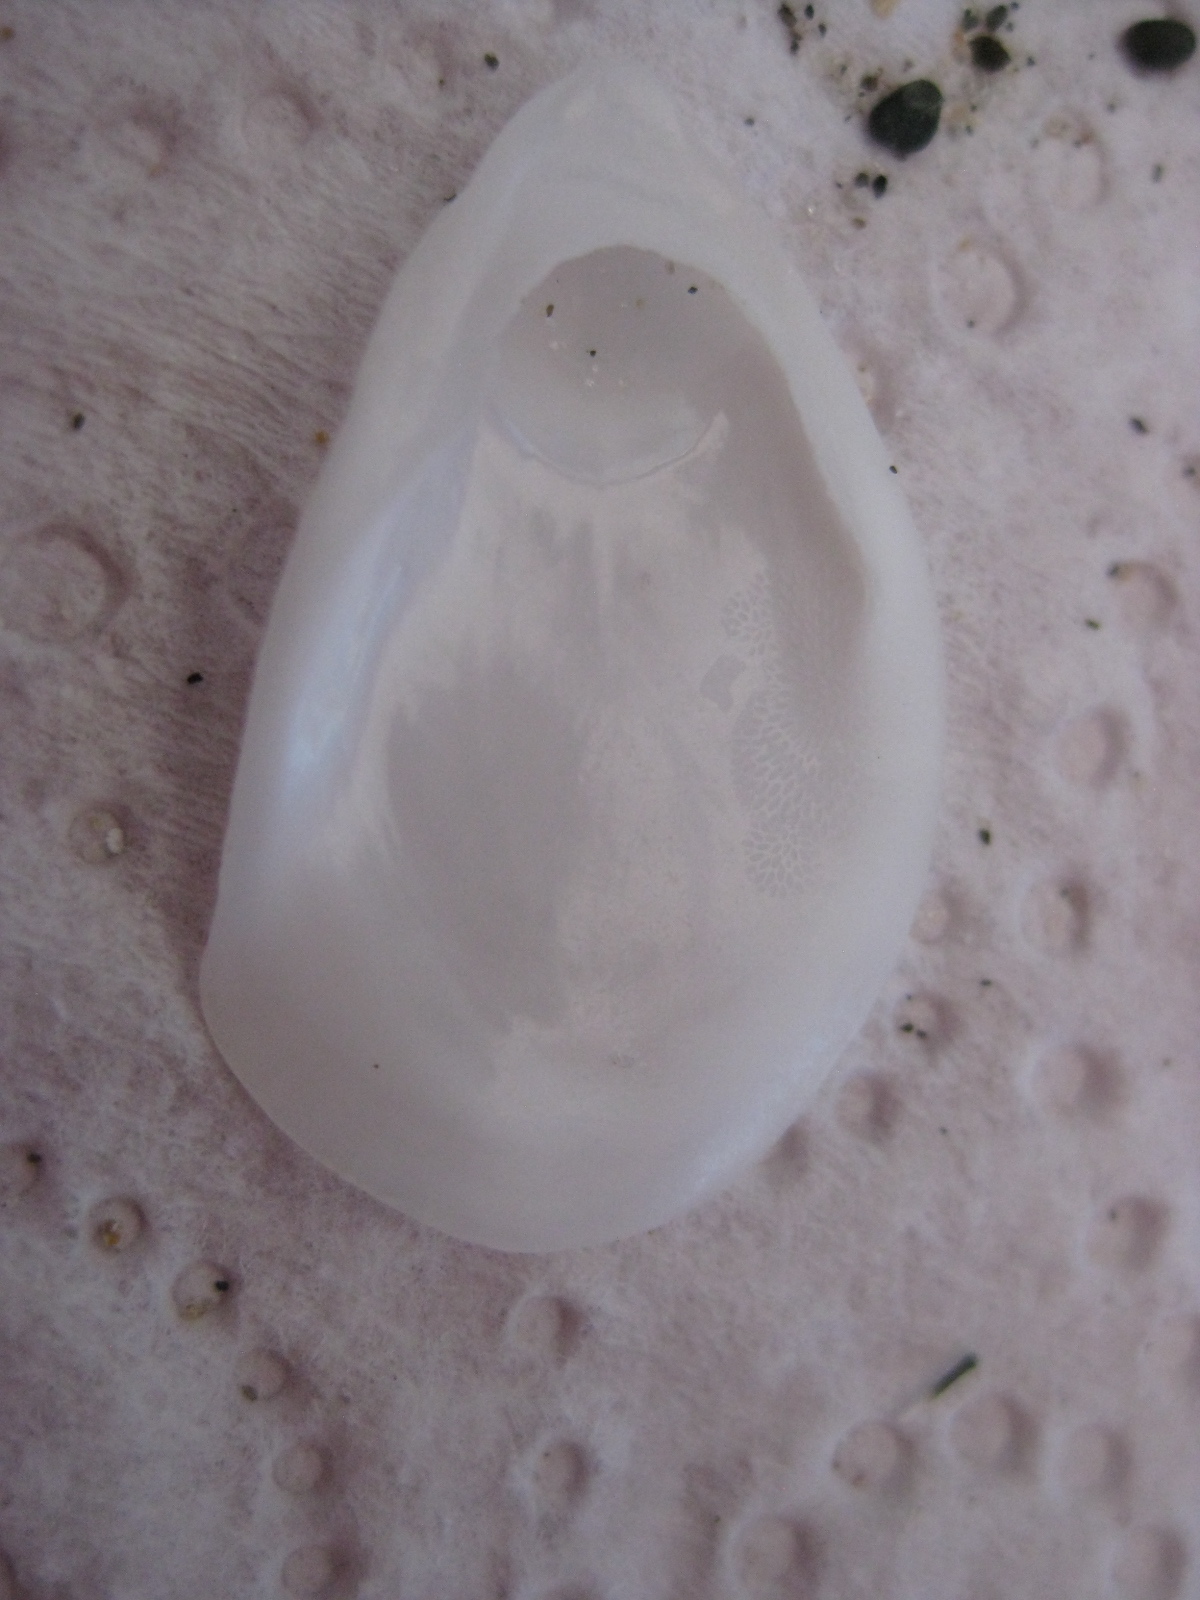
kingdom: Animalia
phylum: Mollusca
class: Gastropoda
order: Littorinimorpha
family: Calyptraeidae
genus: Maoricrypta
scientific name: Maoricrypta sodalis
